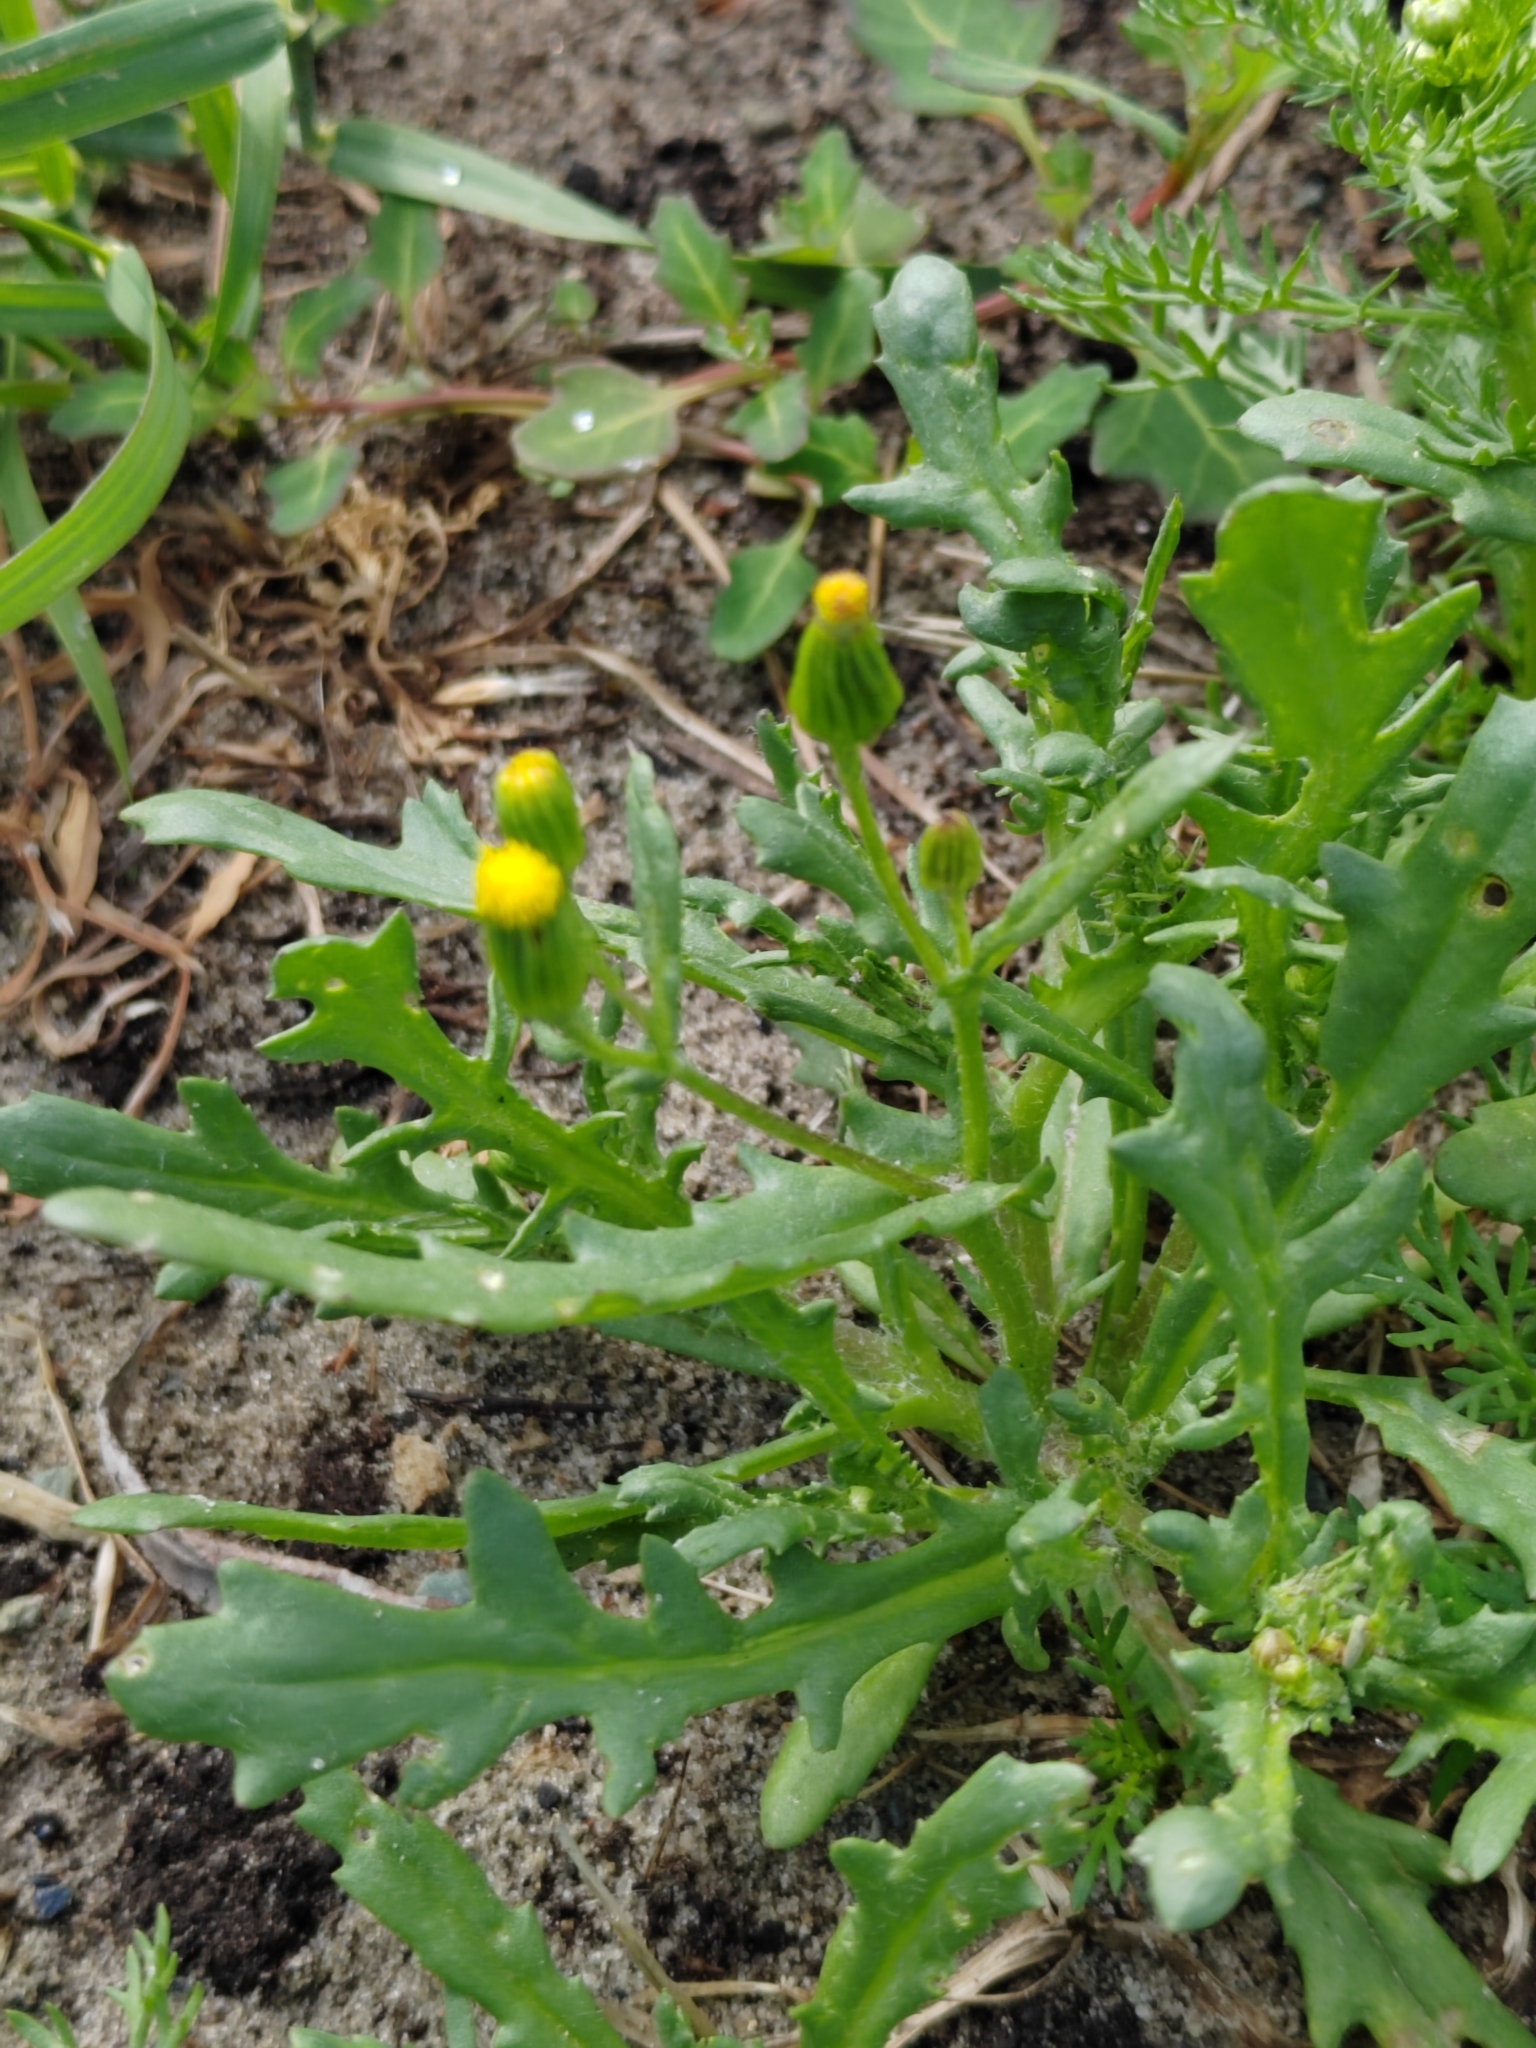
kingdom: Plantae
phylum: Tracheophyta
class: Magnoliopsida
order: Asterales
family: Asteraceae
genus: Senecio
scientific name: Senecio dubitabilis
